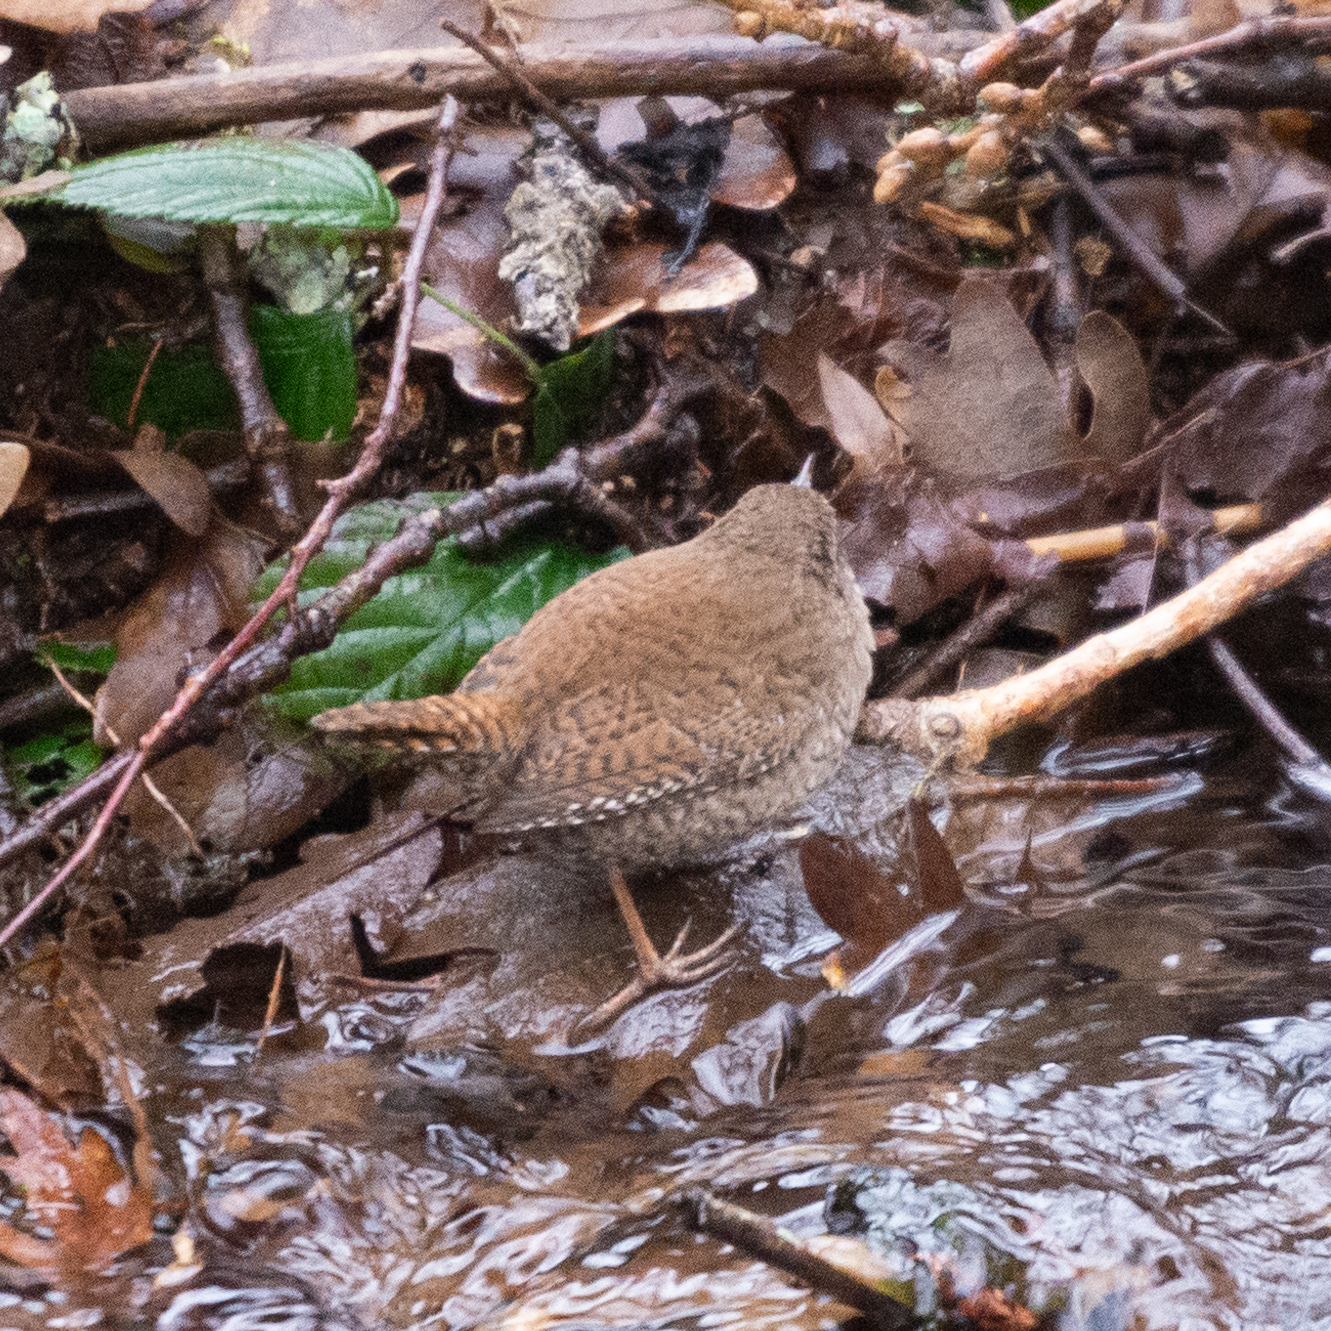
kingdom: Animalia
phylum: Chordata
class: Aves
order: Passeriformes
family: Troglodytidae
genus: Troglodytes
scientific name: Troglodytes troglodytes
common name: Eurasian wren
